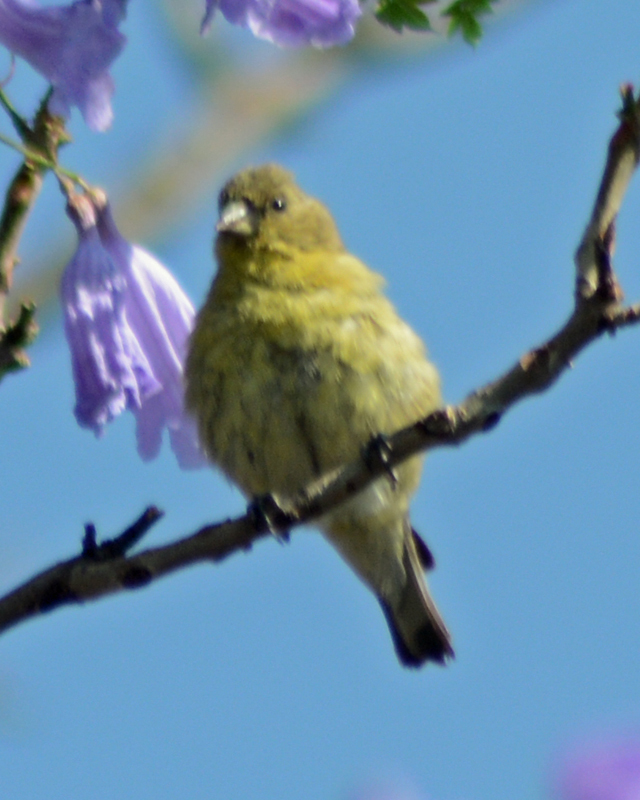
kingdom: Animalia
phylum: Chordata
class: Aves
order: Passeriformes
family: Fringillidae
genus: Spinus
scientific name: Spinus psaltria
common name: Lesser goldfinch
